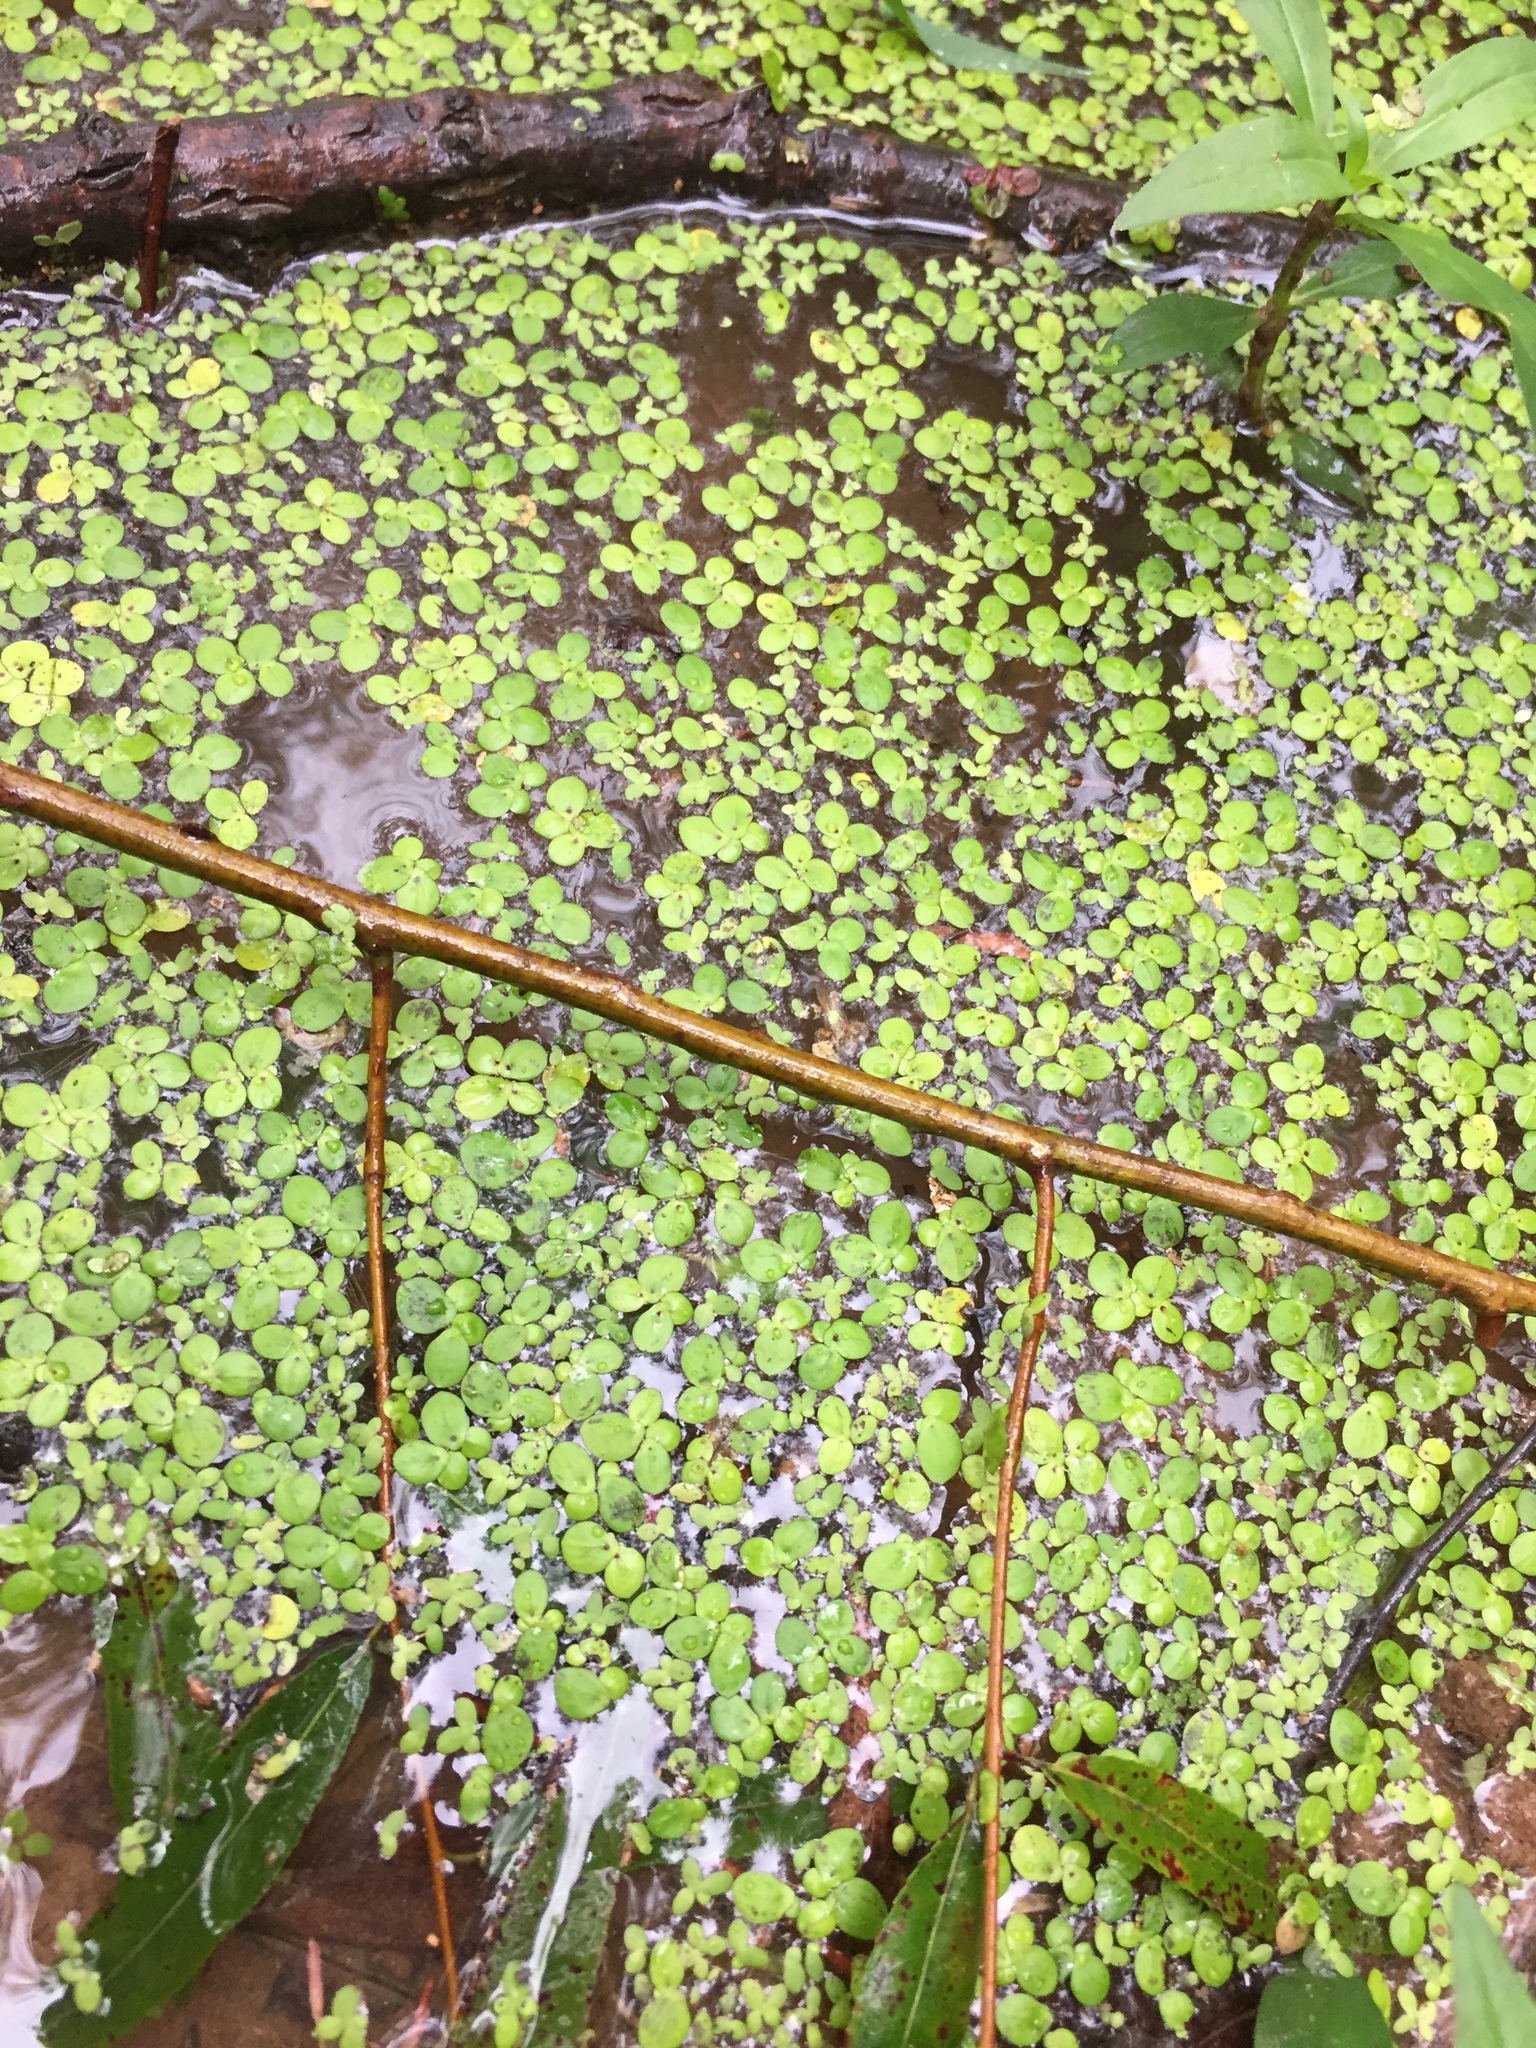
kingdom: Plantae
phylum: Tracheophyta
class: Liliopsida
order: Alismatales
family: Araceae
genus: Spirodela
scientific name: Spirodela polyrhiza
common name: Great duckweed
